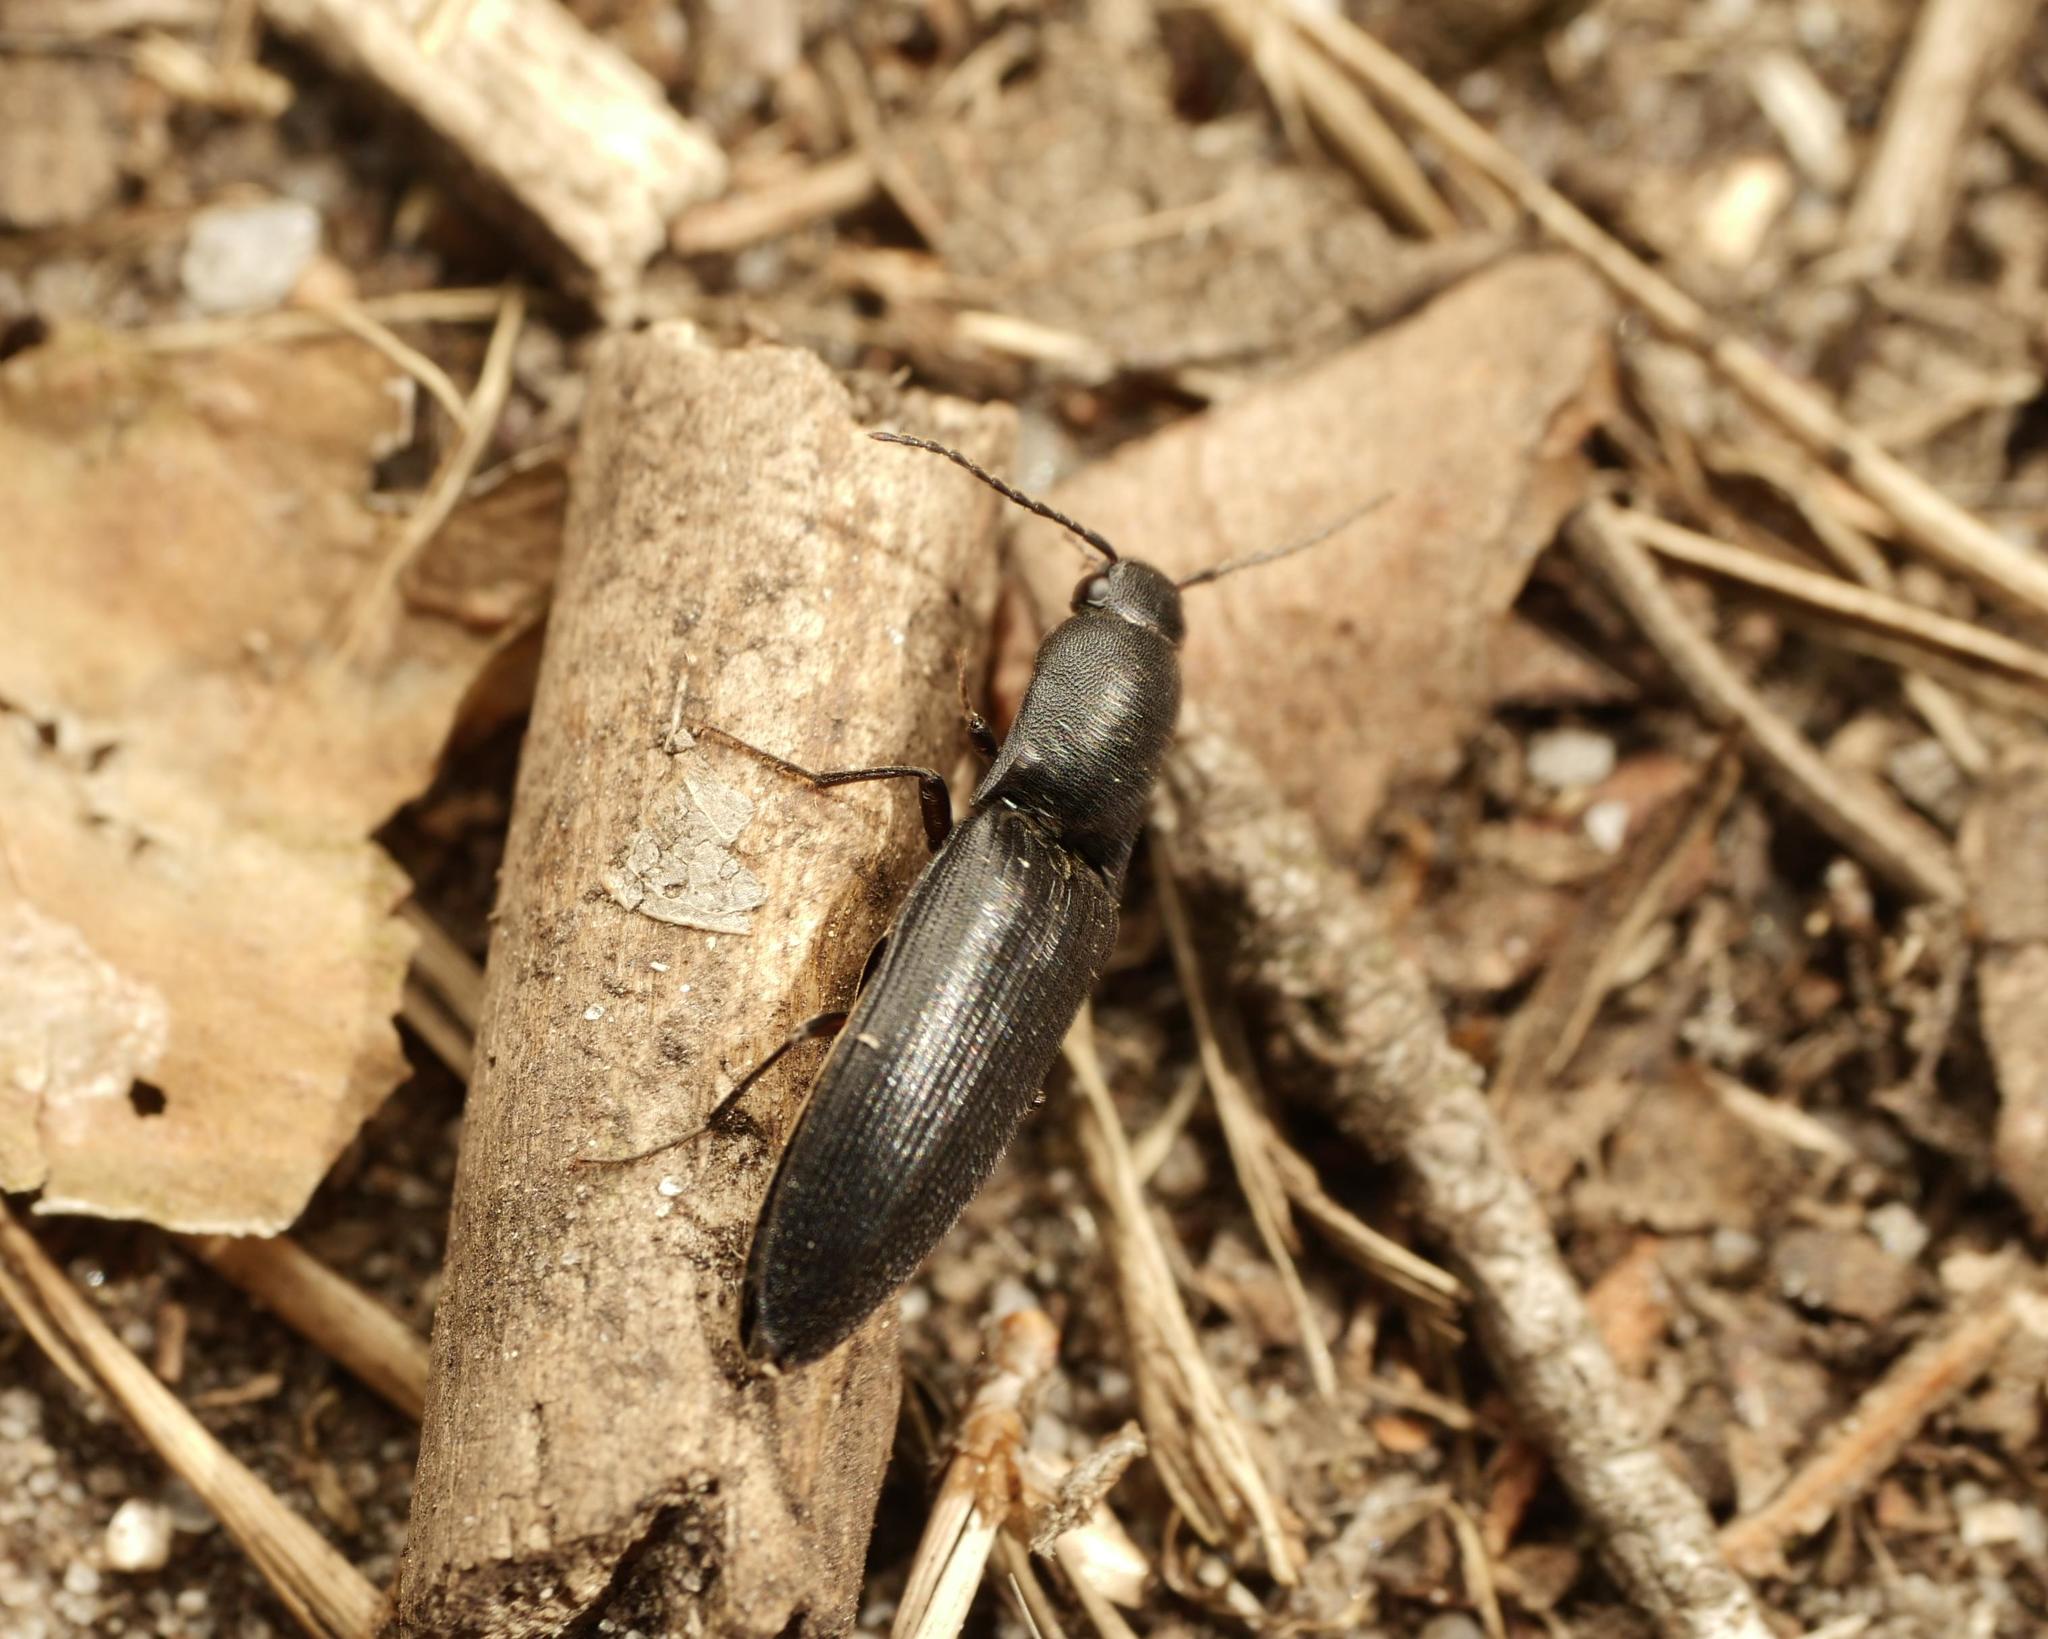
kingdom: Animalia
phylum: Arthropoda
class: Insecta
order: Coleoptera
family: Elateridae
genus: Ectinus
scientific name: Ectinus aterrimus
